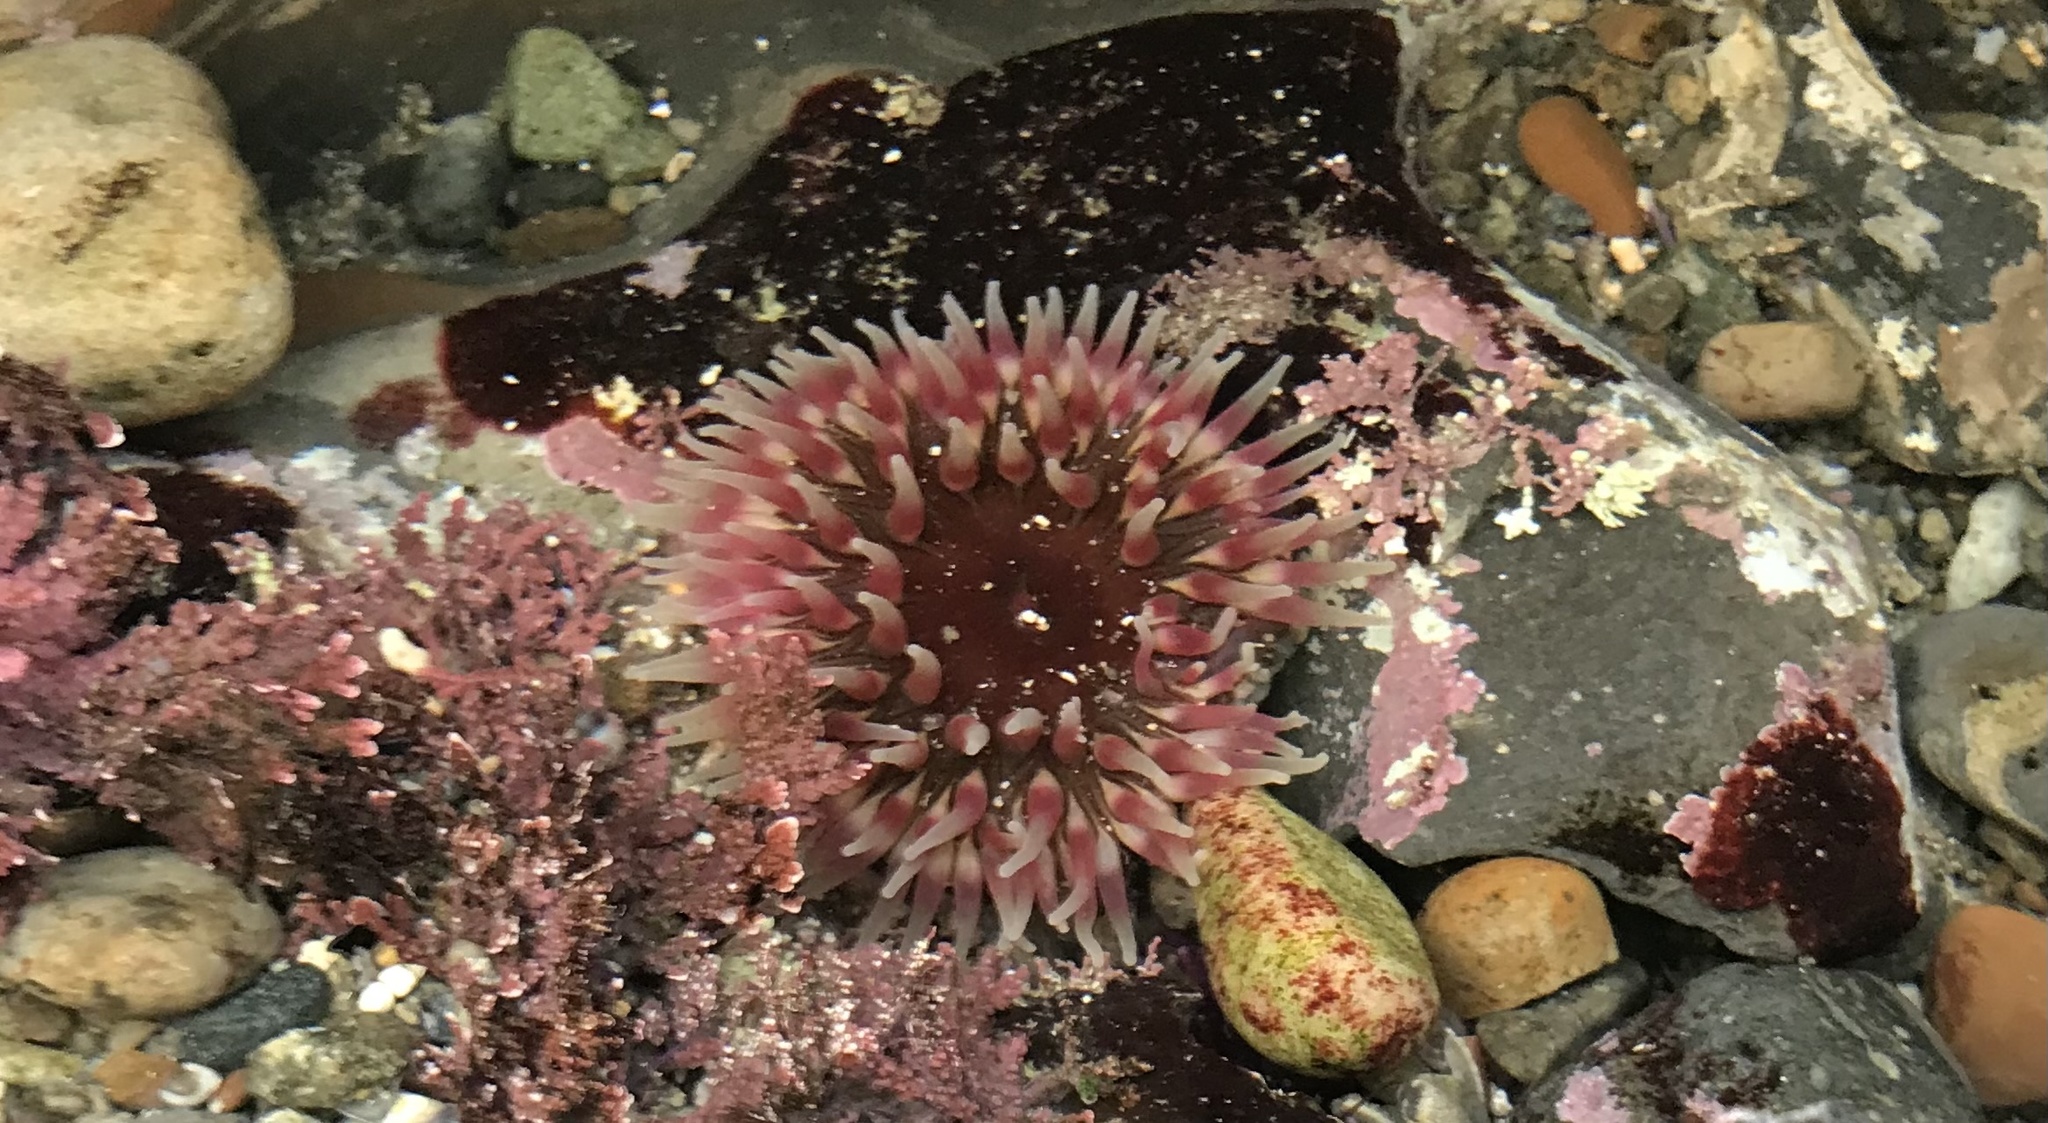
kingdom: Animalia
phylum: Cnidaria
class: Anthozoa
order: Actiniaria
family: Actiniidae
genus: Urticina
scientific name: Urticina clandestina
